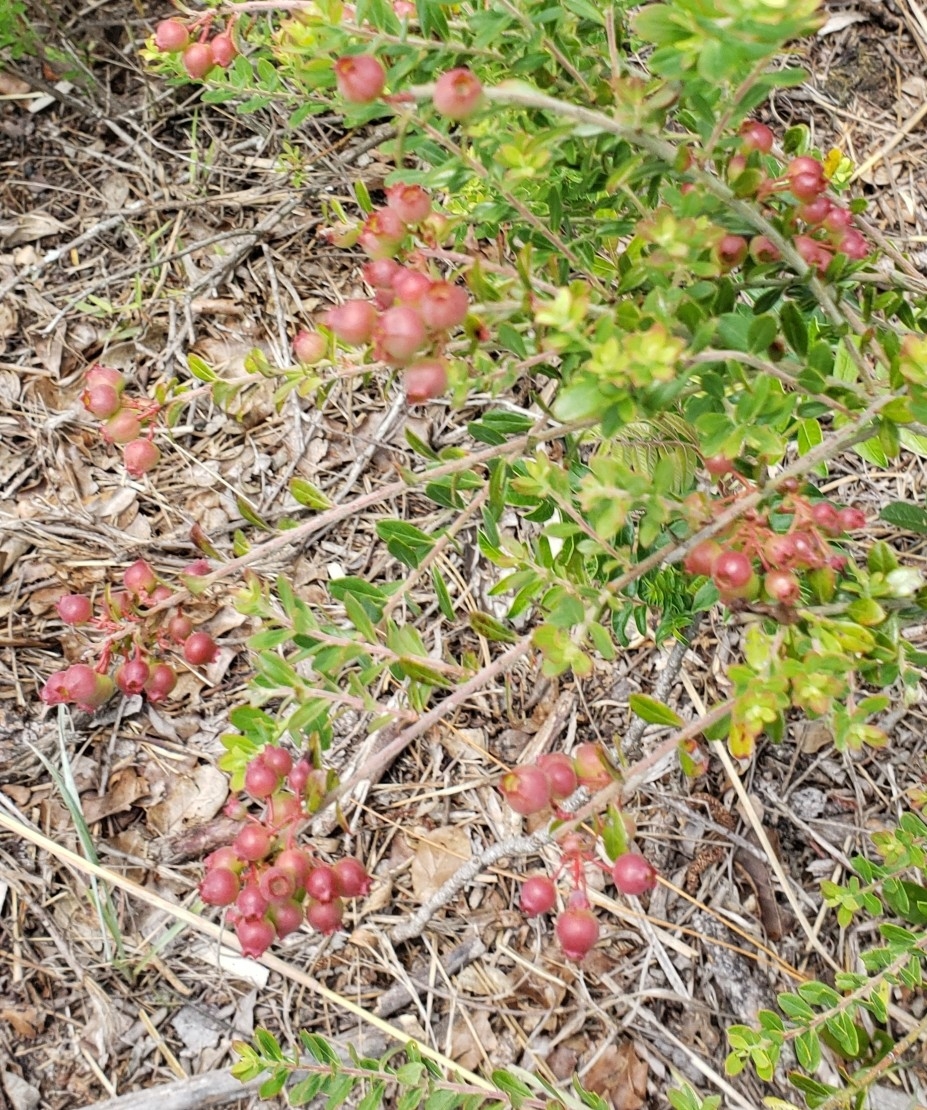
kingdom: Plantae
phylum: Tracheophyta
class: Magnoliopsida
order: Ericales
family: Ericaceae
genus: Vaccinium
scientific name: Vaccinium myrsinites
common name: Evergreen blueberry
